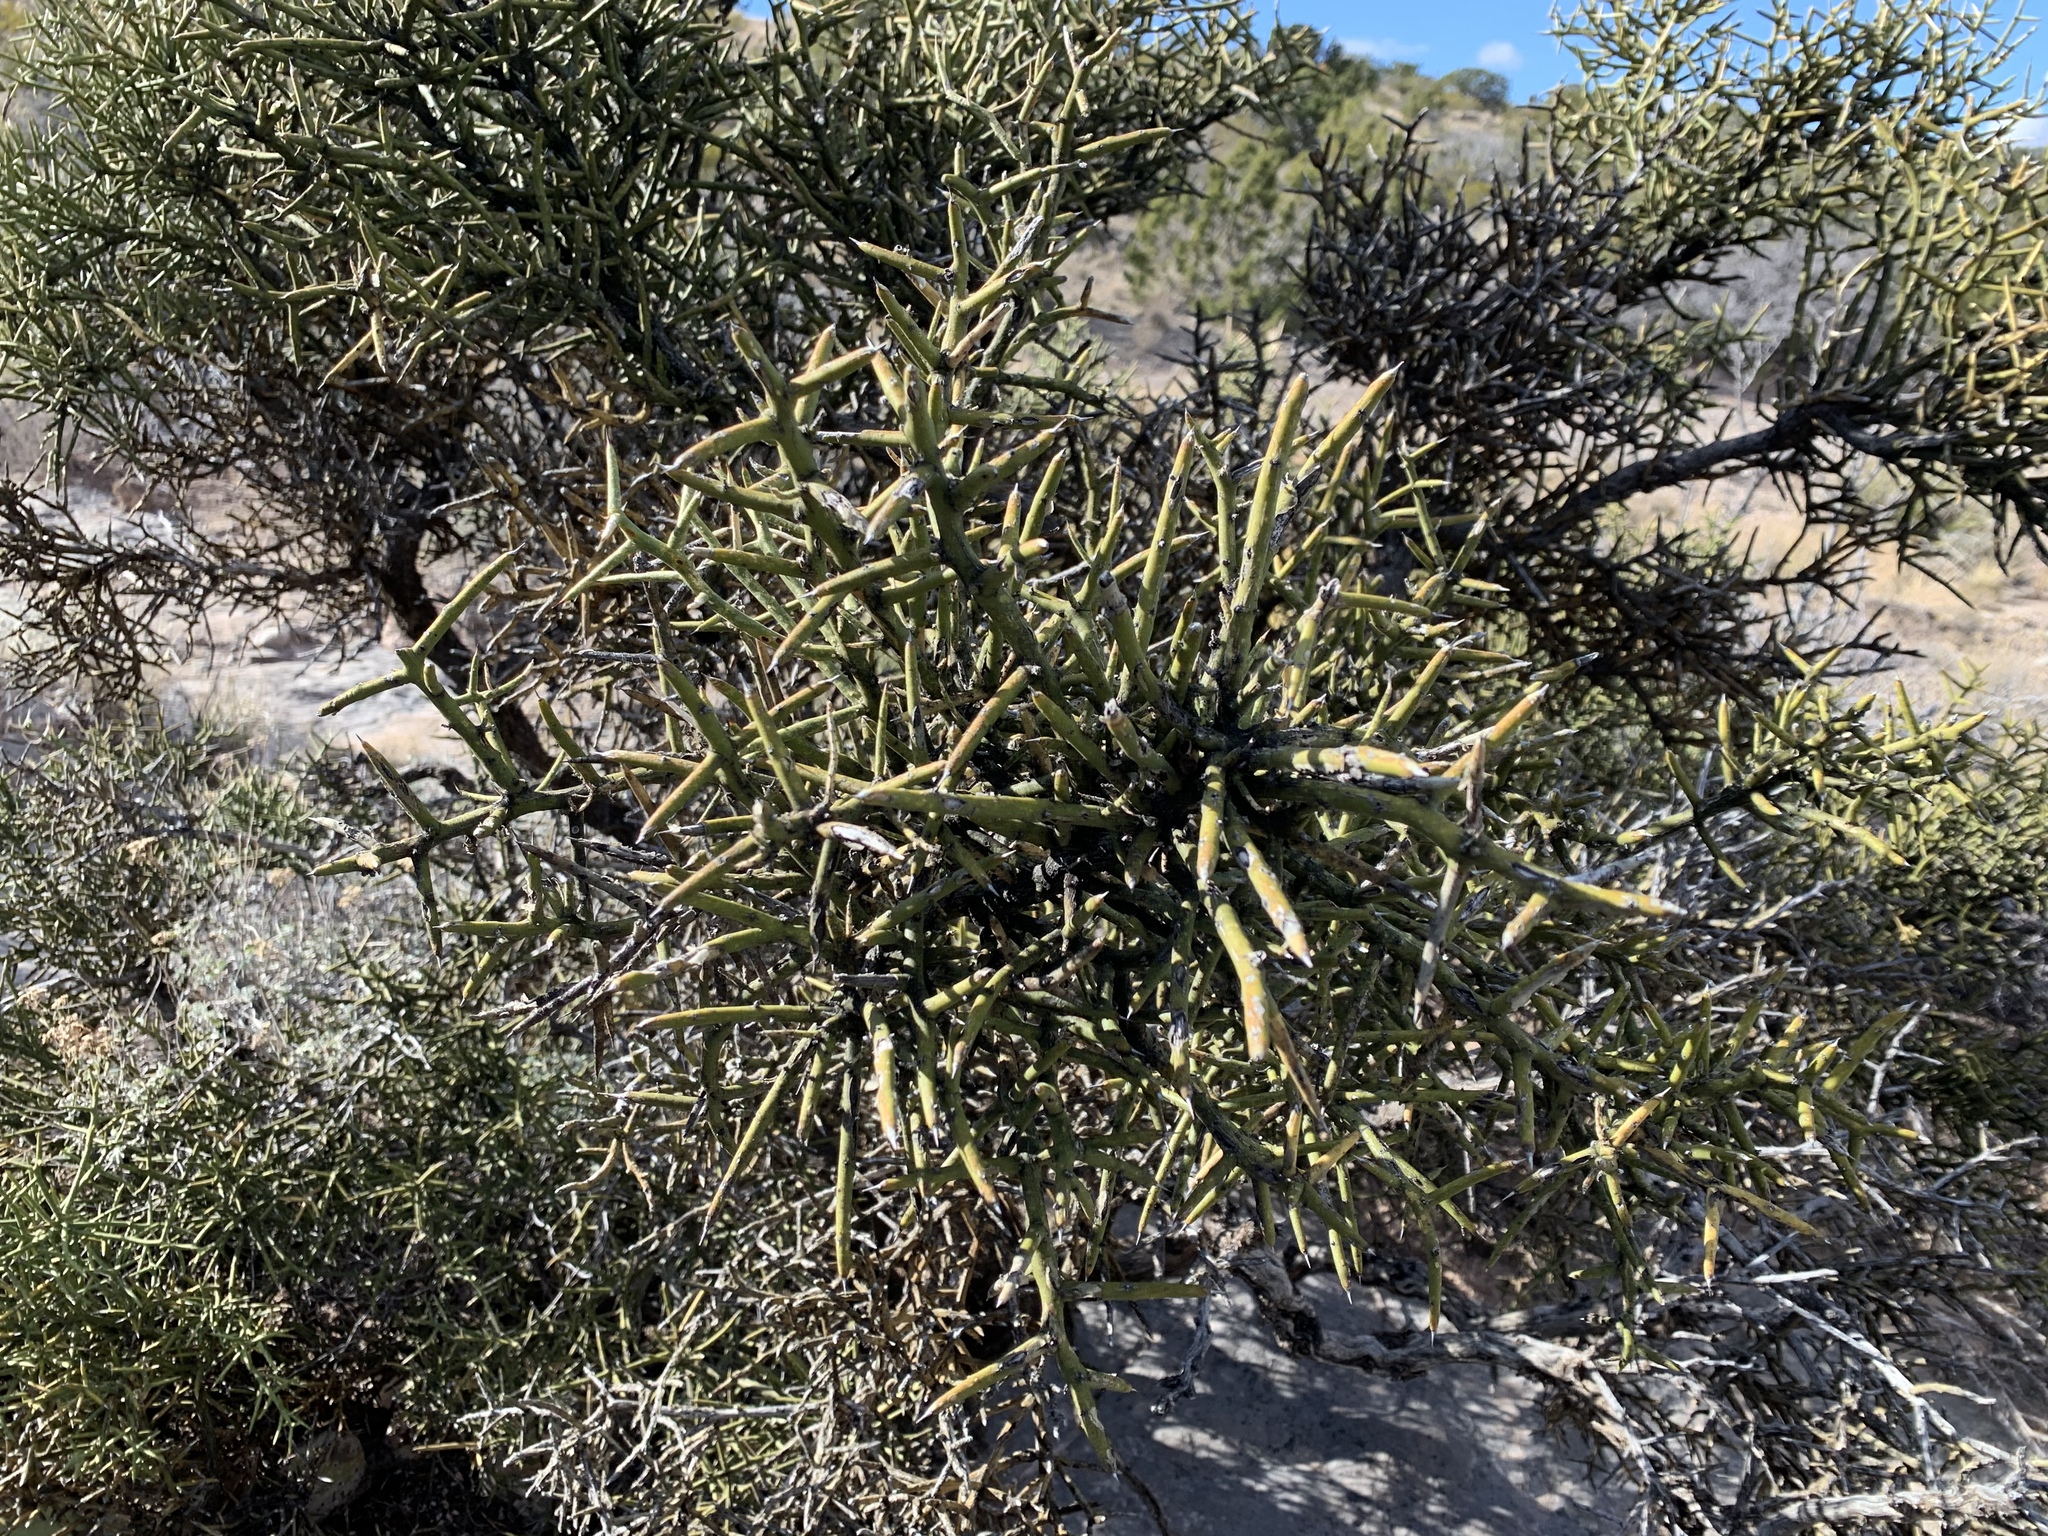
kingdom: Plantae
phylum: Tracheophyta
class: Magnoliopsida
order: Brassicales
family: Koeberliniaceae
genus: Koeberlinia
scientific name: Koeberlinia spinosa
